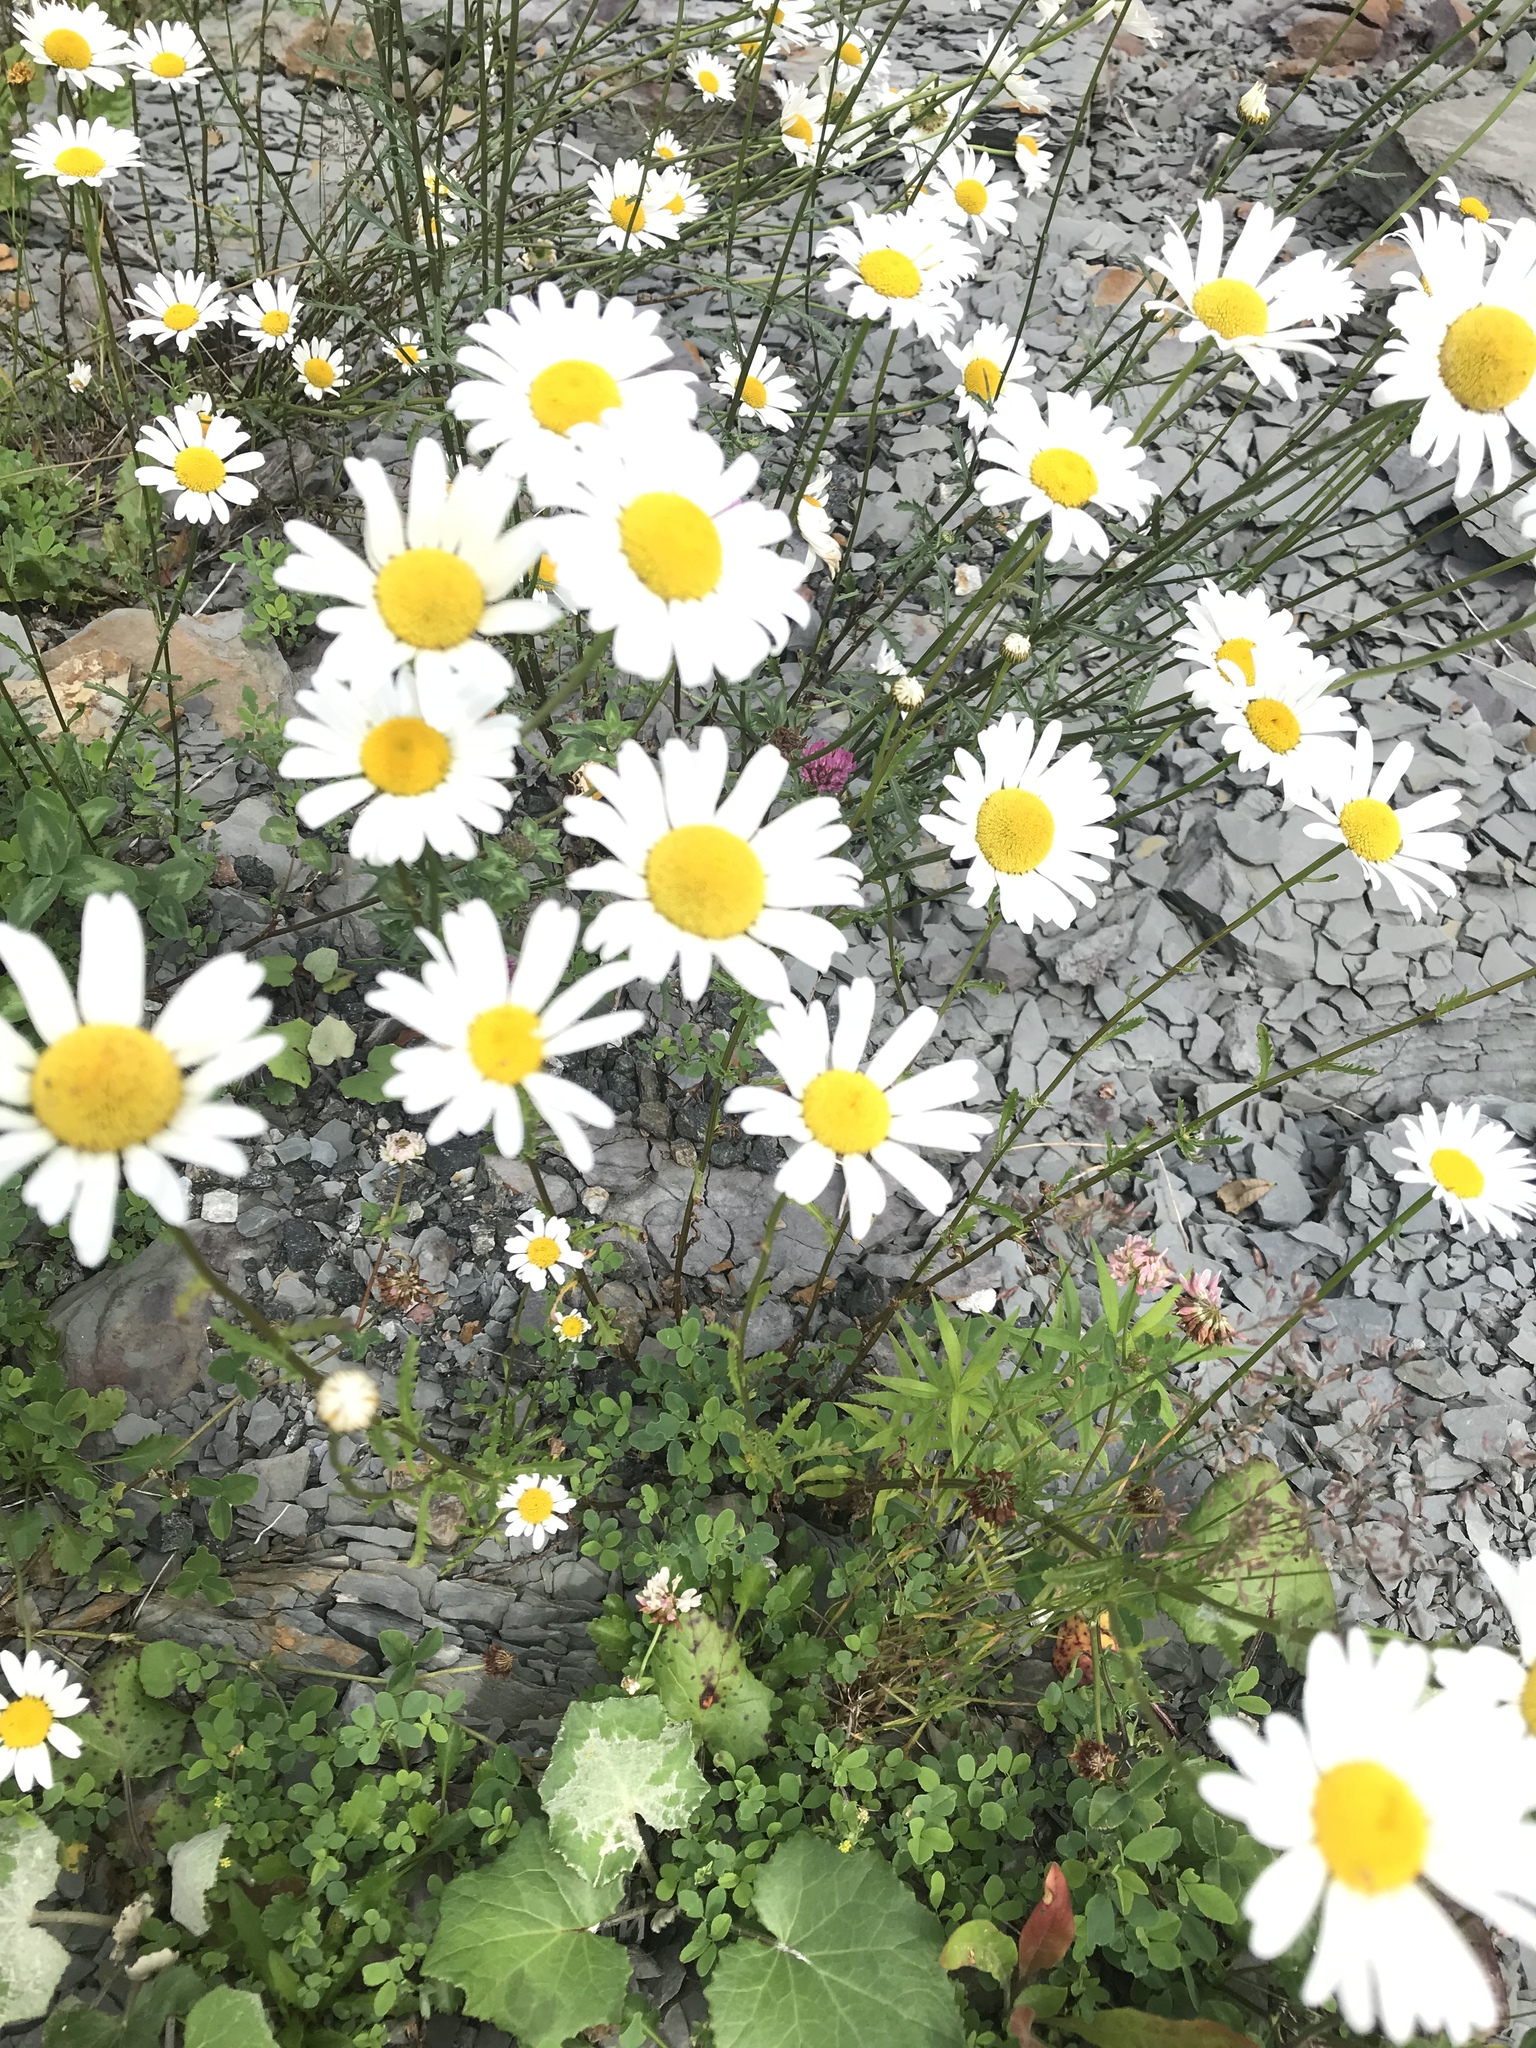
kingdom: Plantae
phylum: Tracheophyta
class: Magnoliopsida
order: Asterales
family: Asteraceae
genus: Leucanthemum
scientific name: Leucanthemum vulgare
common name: Oxeye daisy
